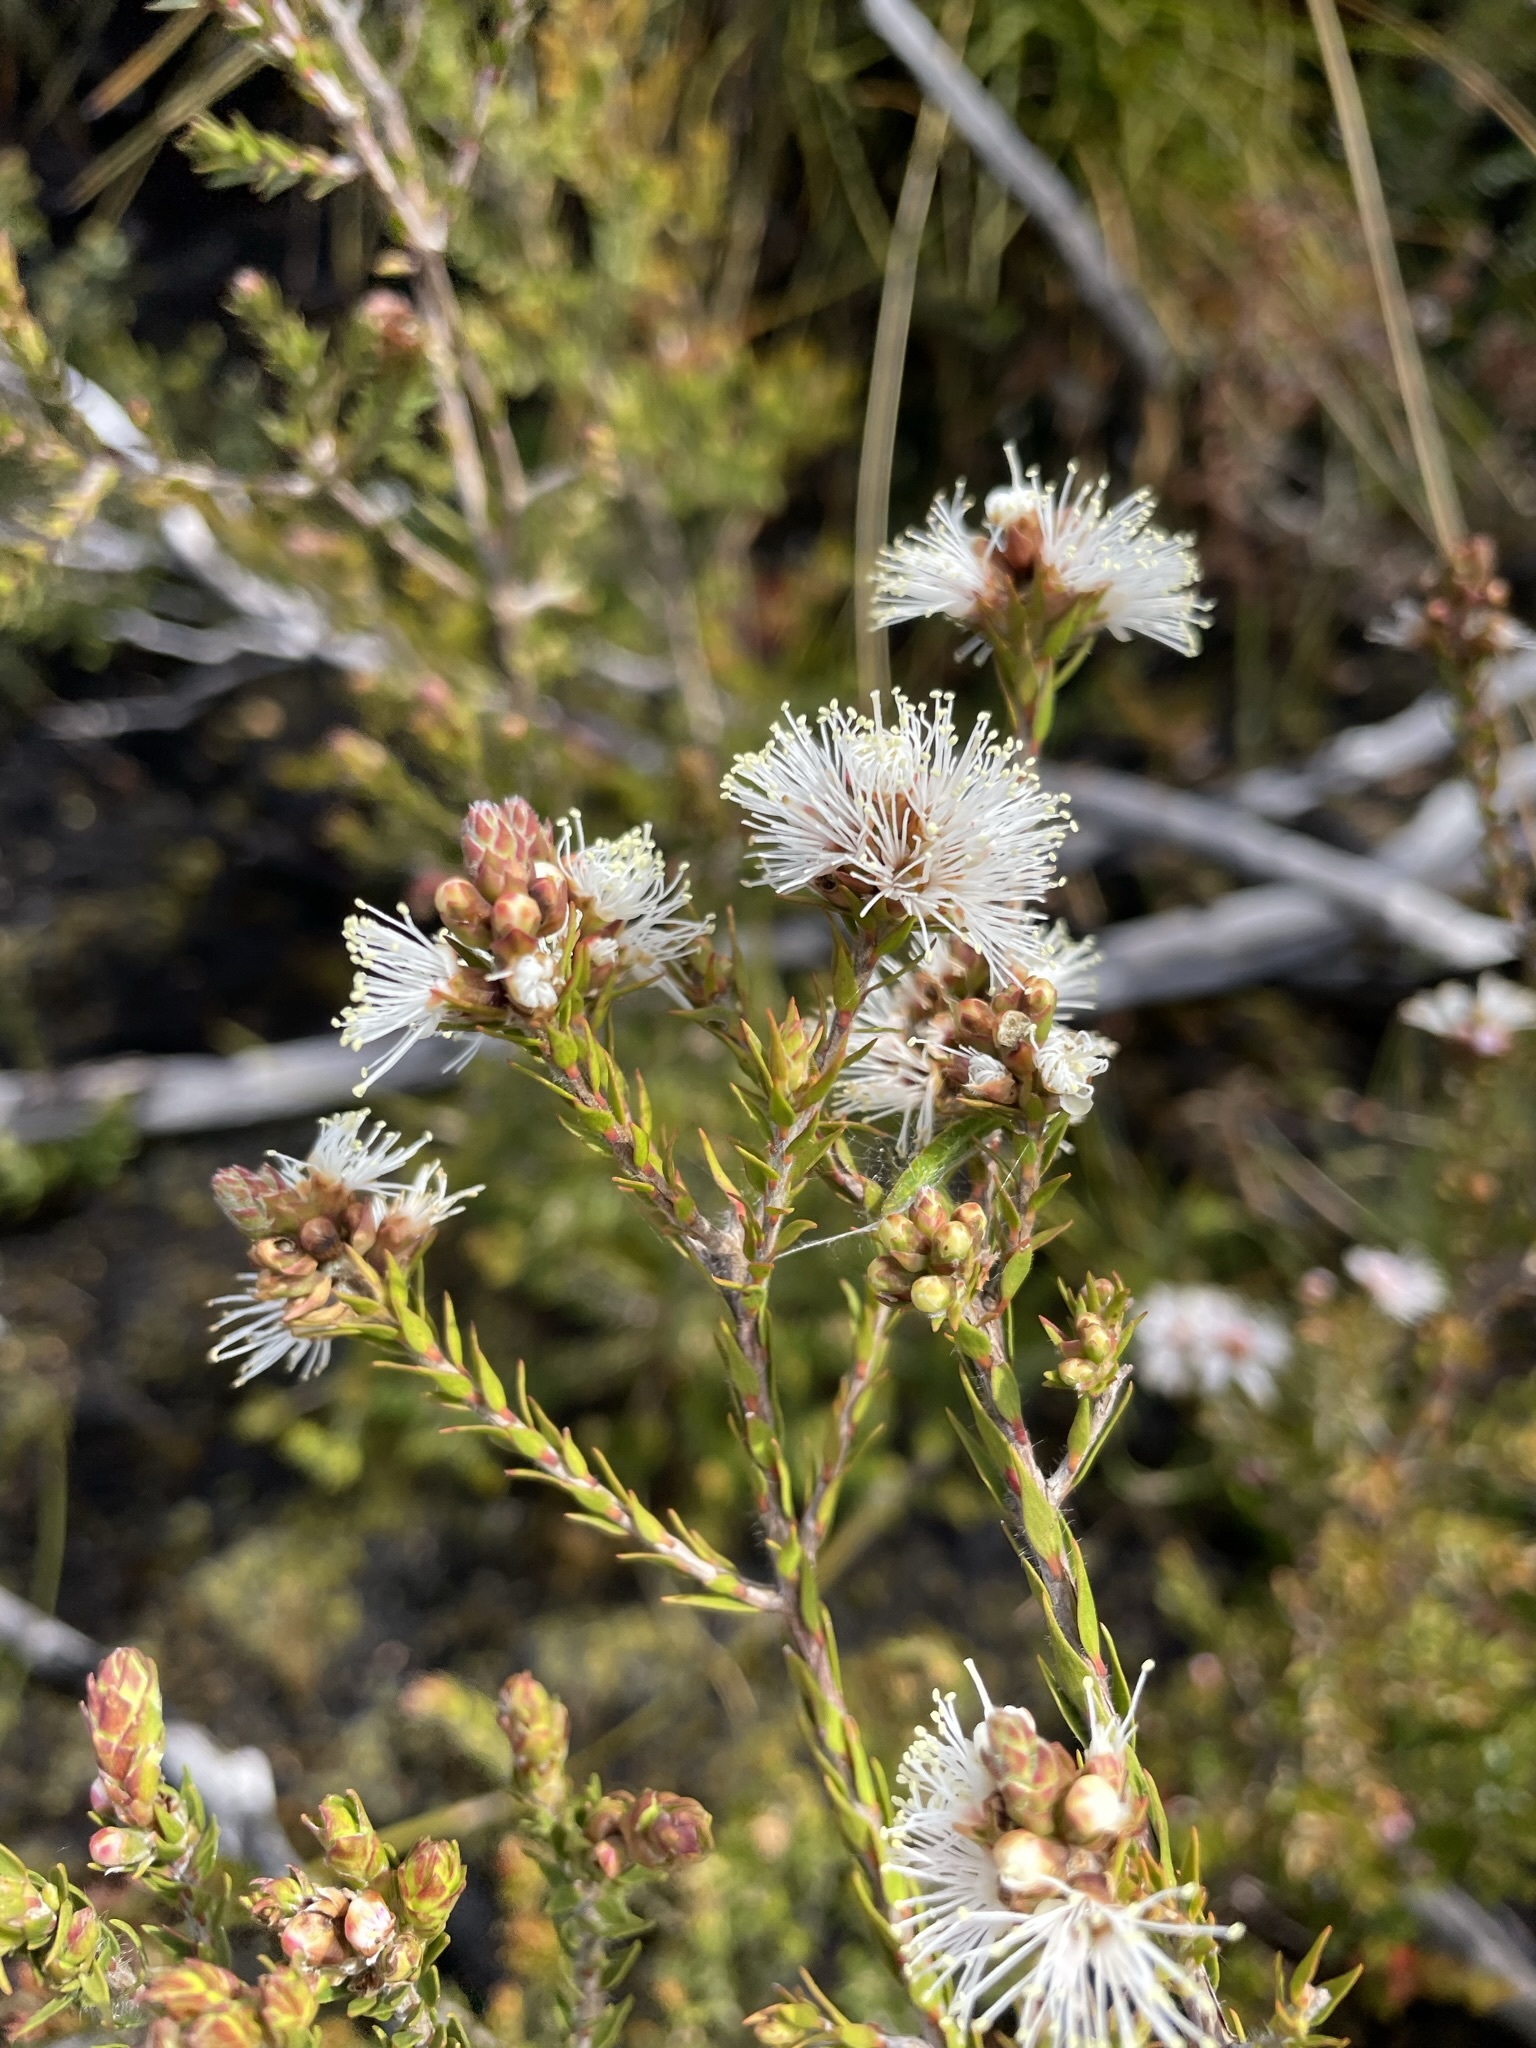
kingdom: Plantae
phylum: Tracheophyta
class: Magnoliopsida
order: Myrtales
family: Myrtaceae
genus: Melaleuca
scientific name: Melaleuca squamea
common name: Swamp melaleuca
